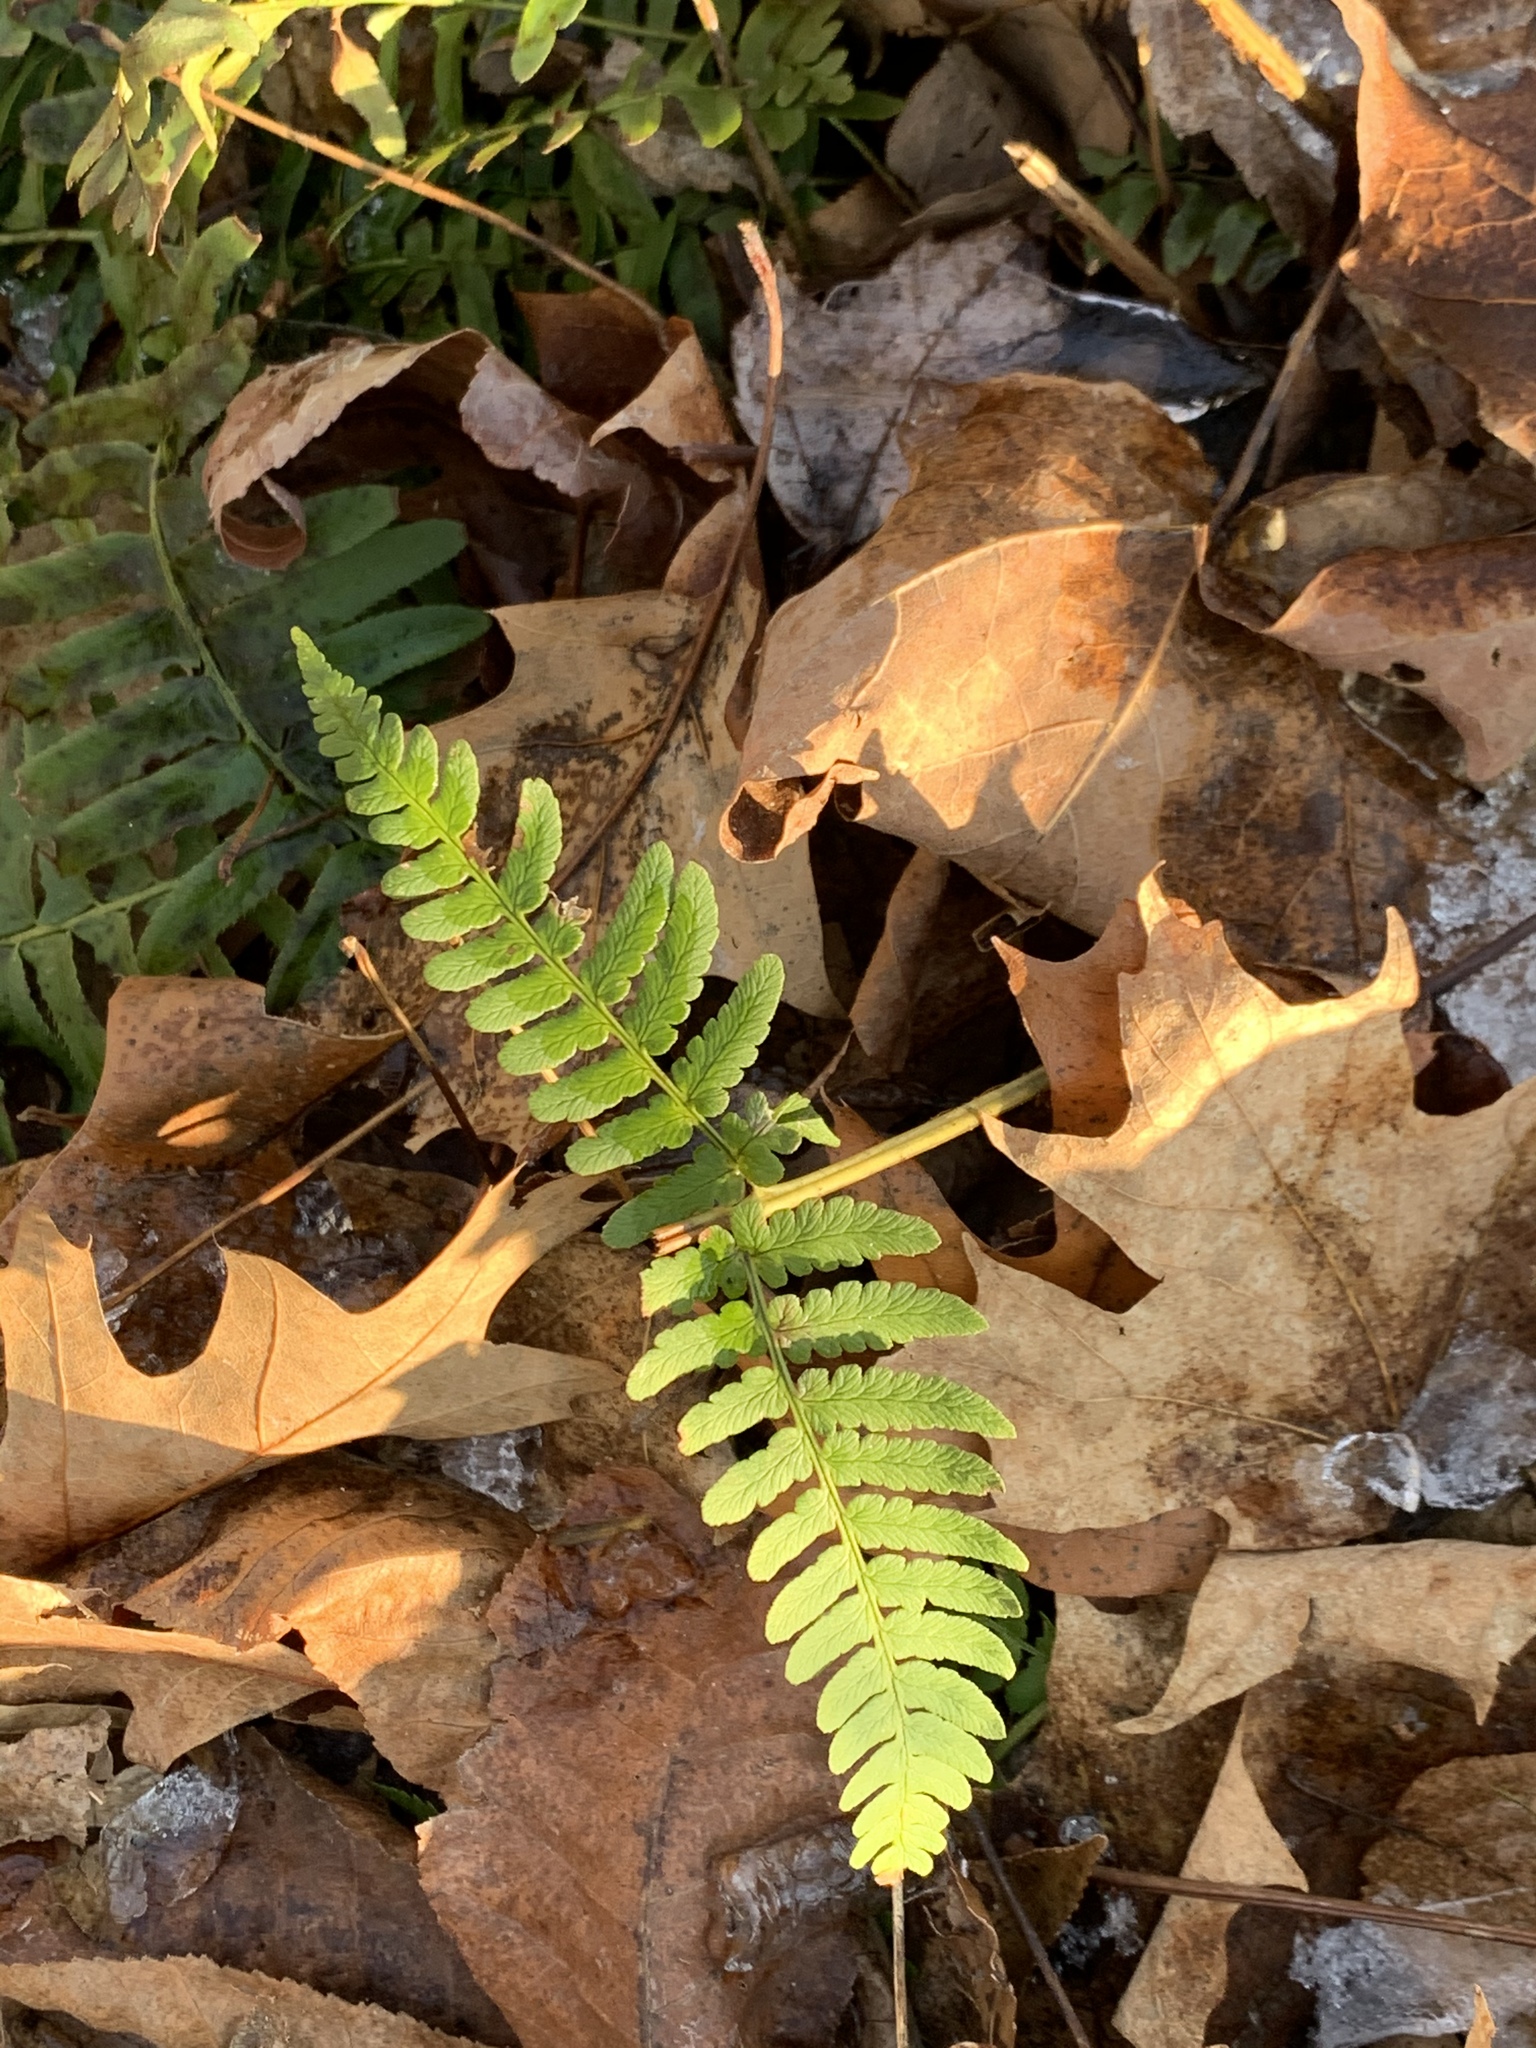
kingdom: Plantae
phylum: Tracheophyta
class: Polypodiopsida
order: Polypodiales
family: Dryopteridaceae
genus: Dryopteris
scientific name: Dryopteris marginalis
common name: Marginal wood fern
